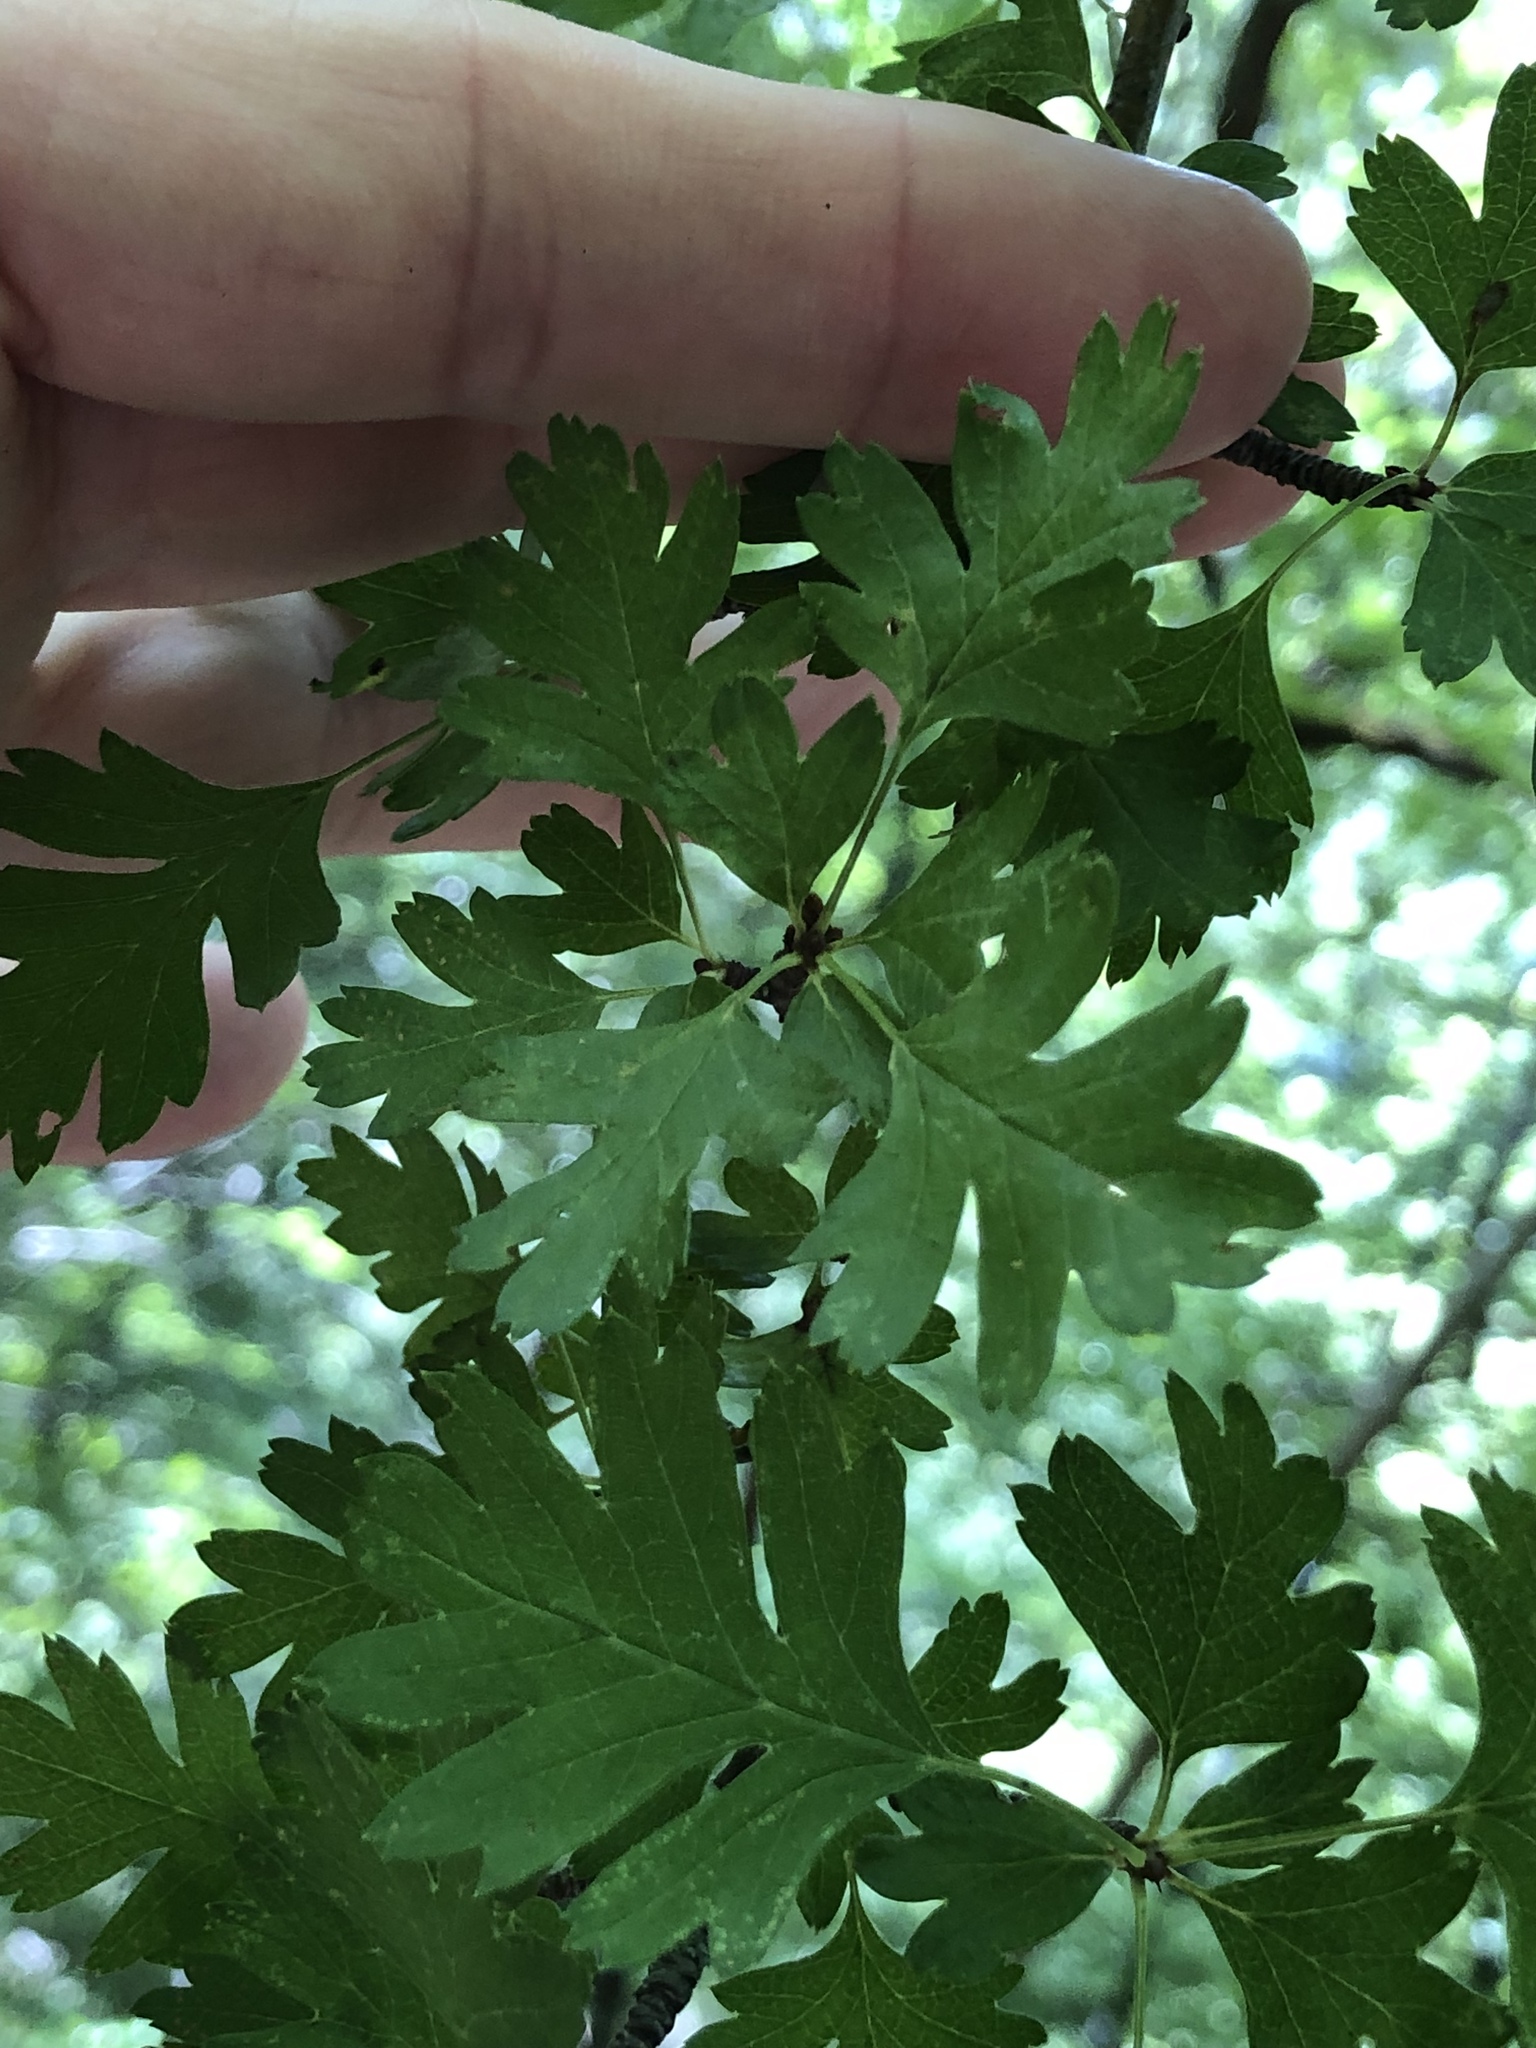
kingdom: Plantae
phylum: Tracheophyta
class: Magnoliopsida
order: Rosales
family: Rosaceae
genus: Crataegus
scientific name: Crataegus monogyna
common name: Hawthorn
